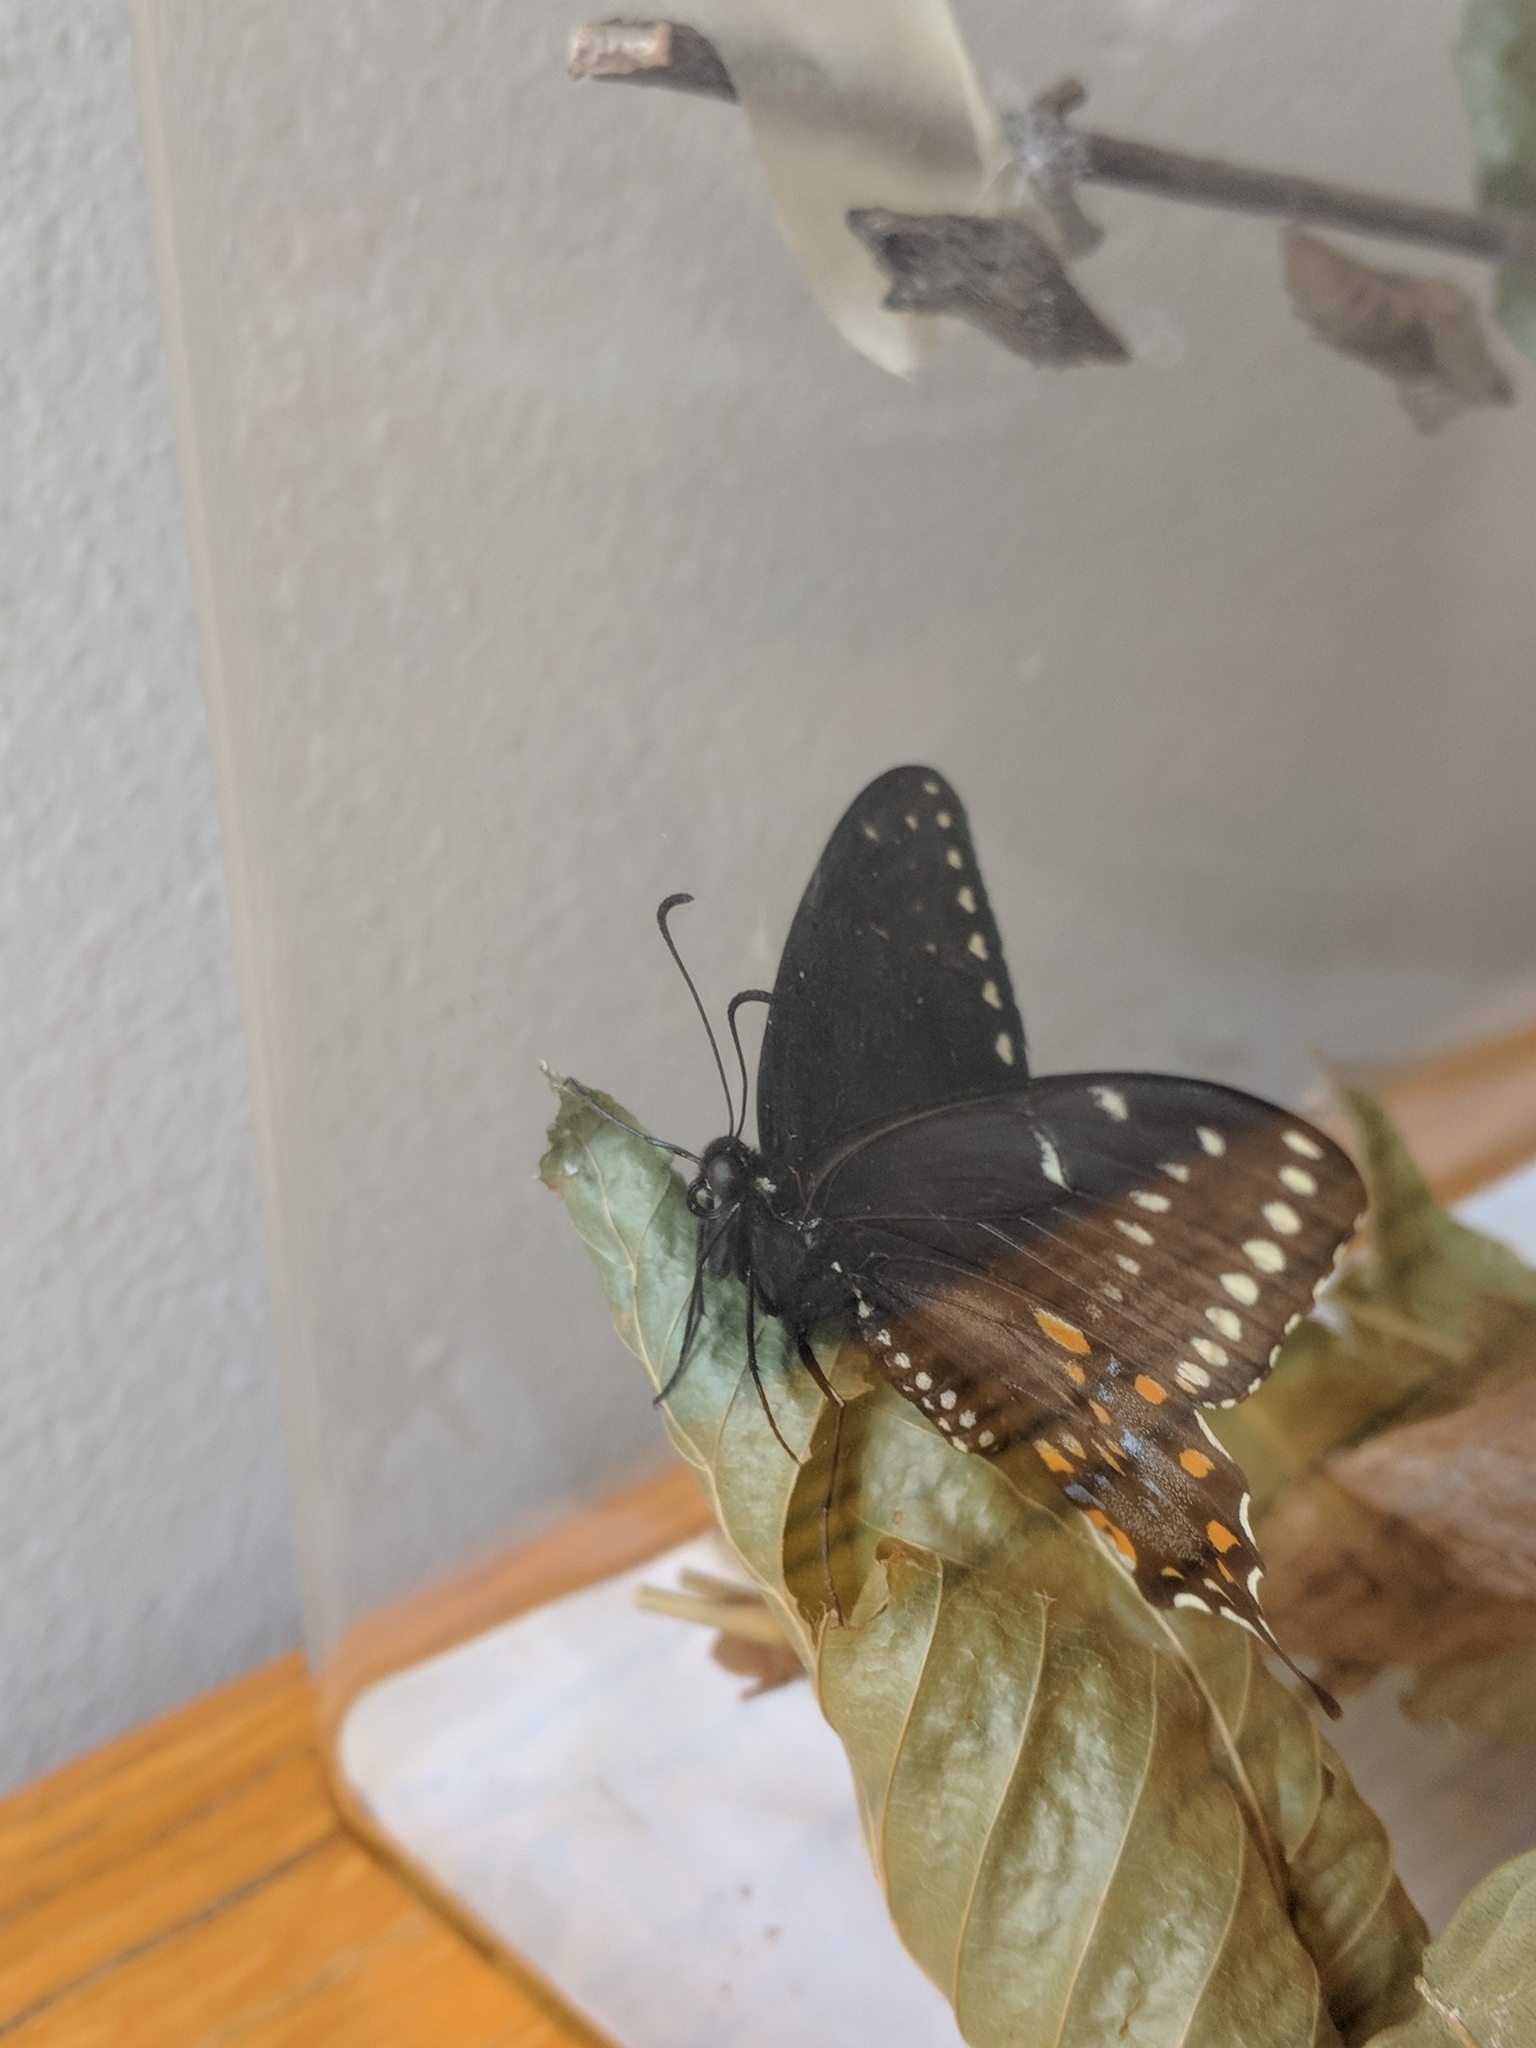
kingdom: Animalia
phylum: Arthropoda
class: Insecta
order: Lepidoptera
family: Papilionidae
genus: Papilio
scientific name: Papilio polyxenes
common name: Black swallowtail
